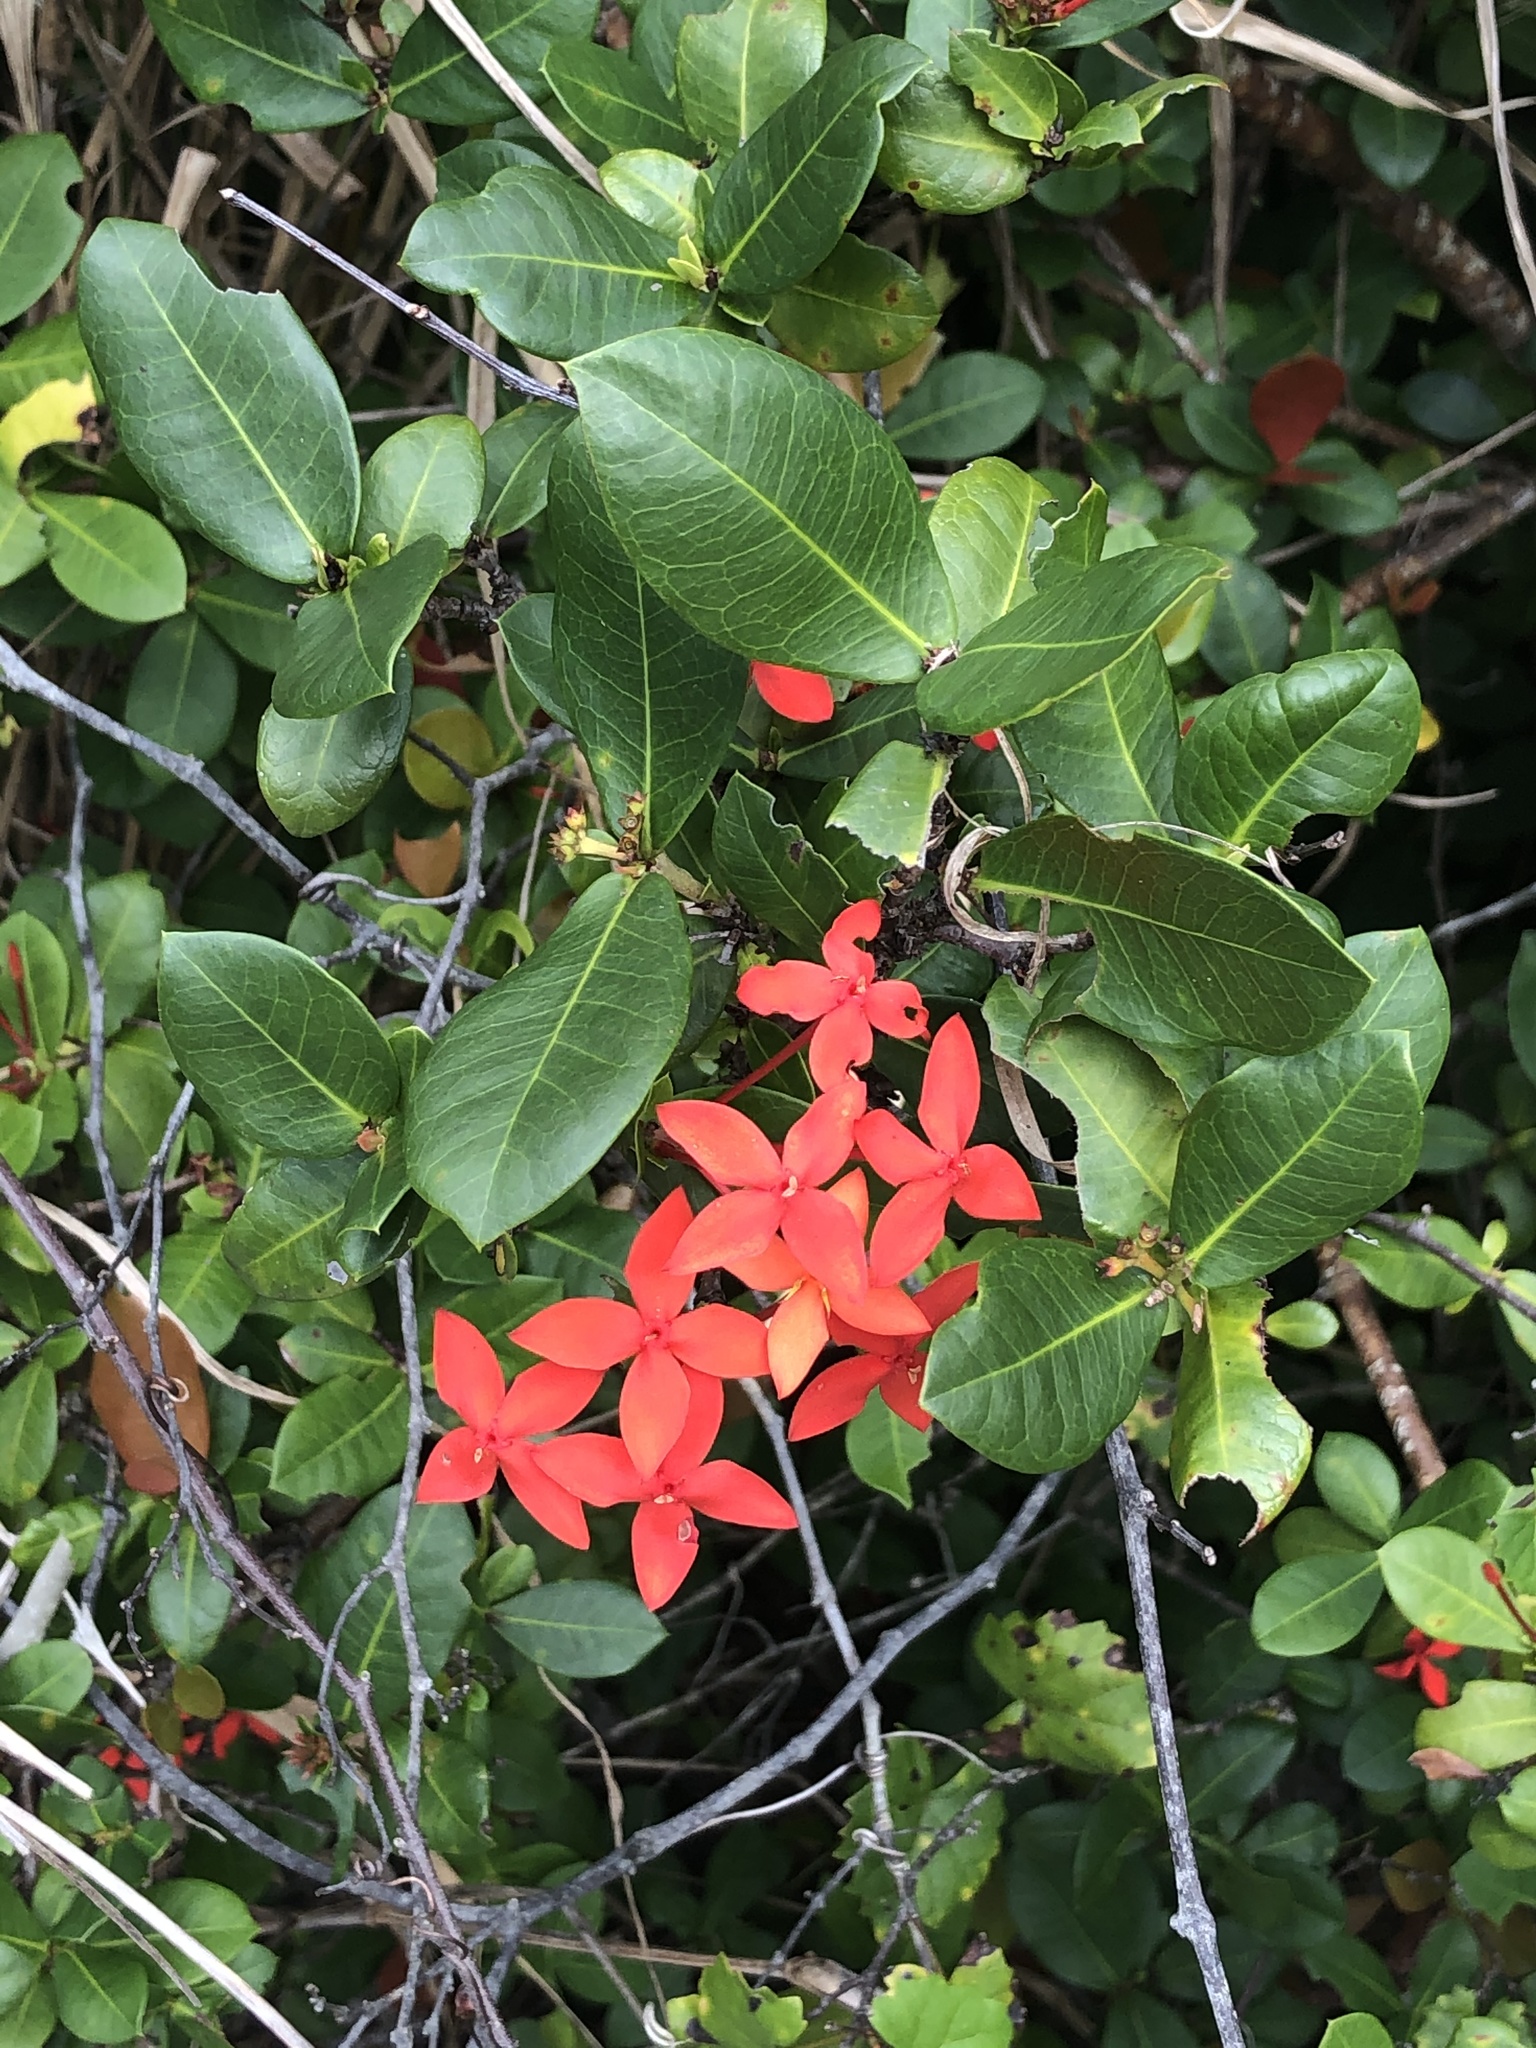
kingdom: Plantae
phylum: Tracheophyta
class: Magnoliopsida
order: Gentianales
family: Rubiaceae
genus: Ixora
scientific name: Ixora coccinea
